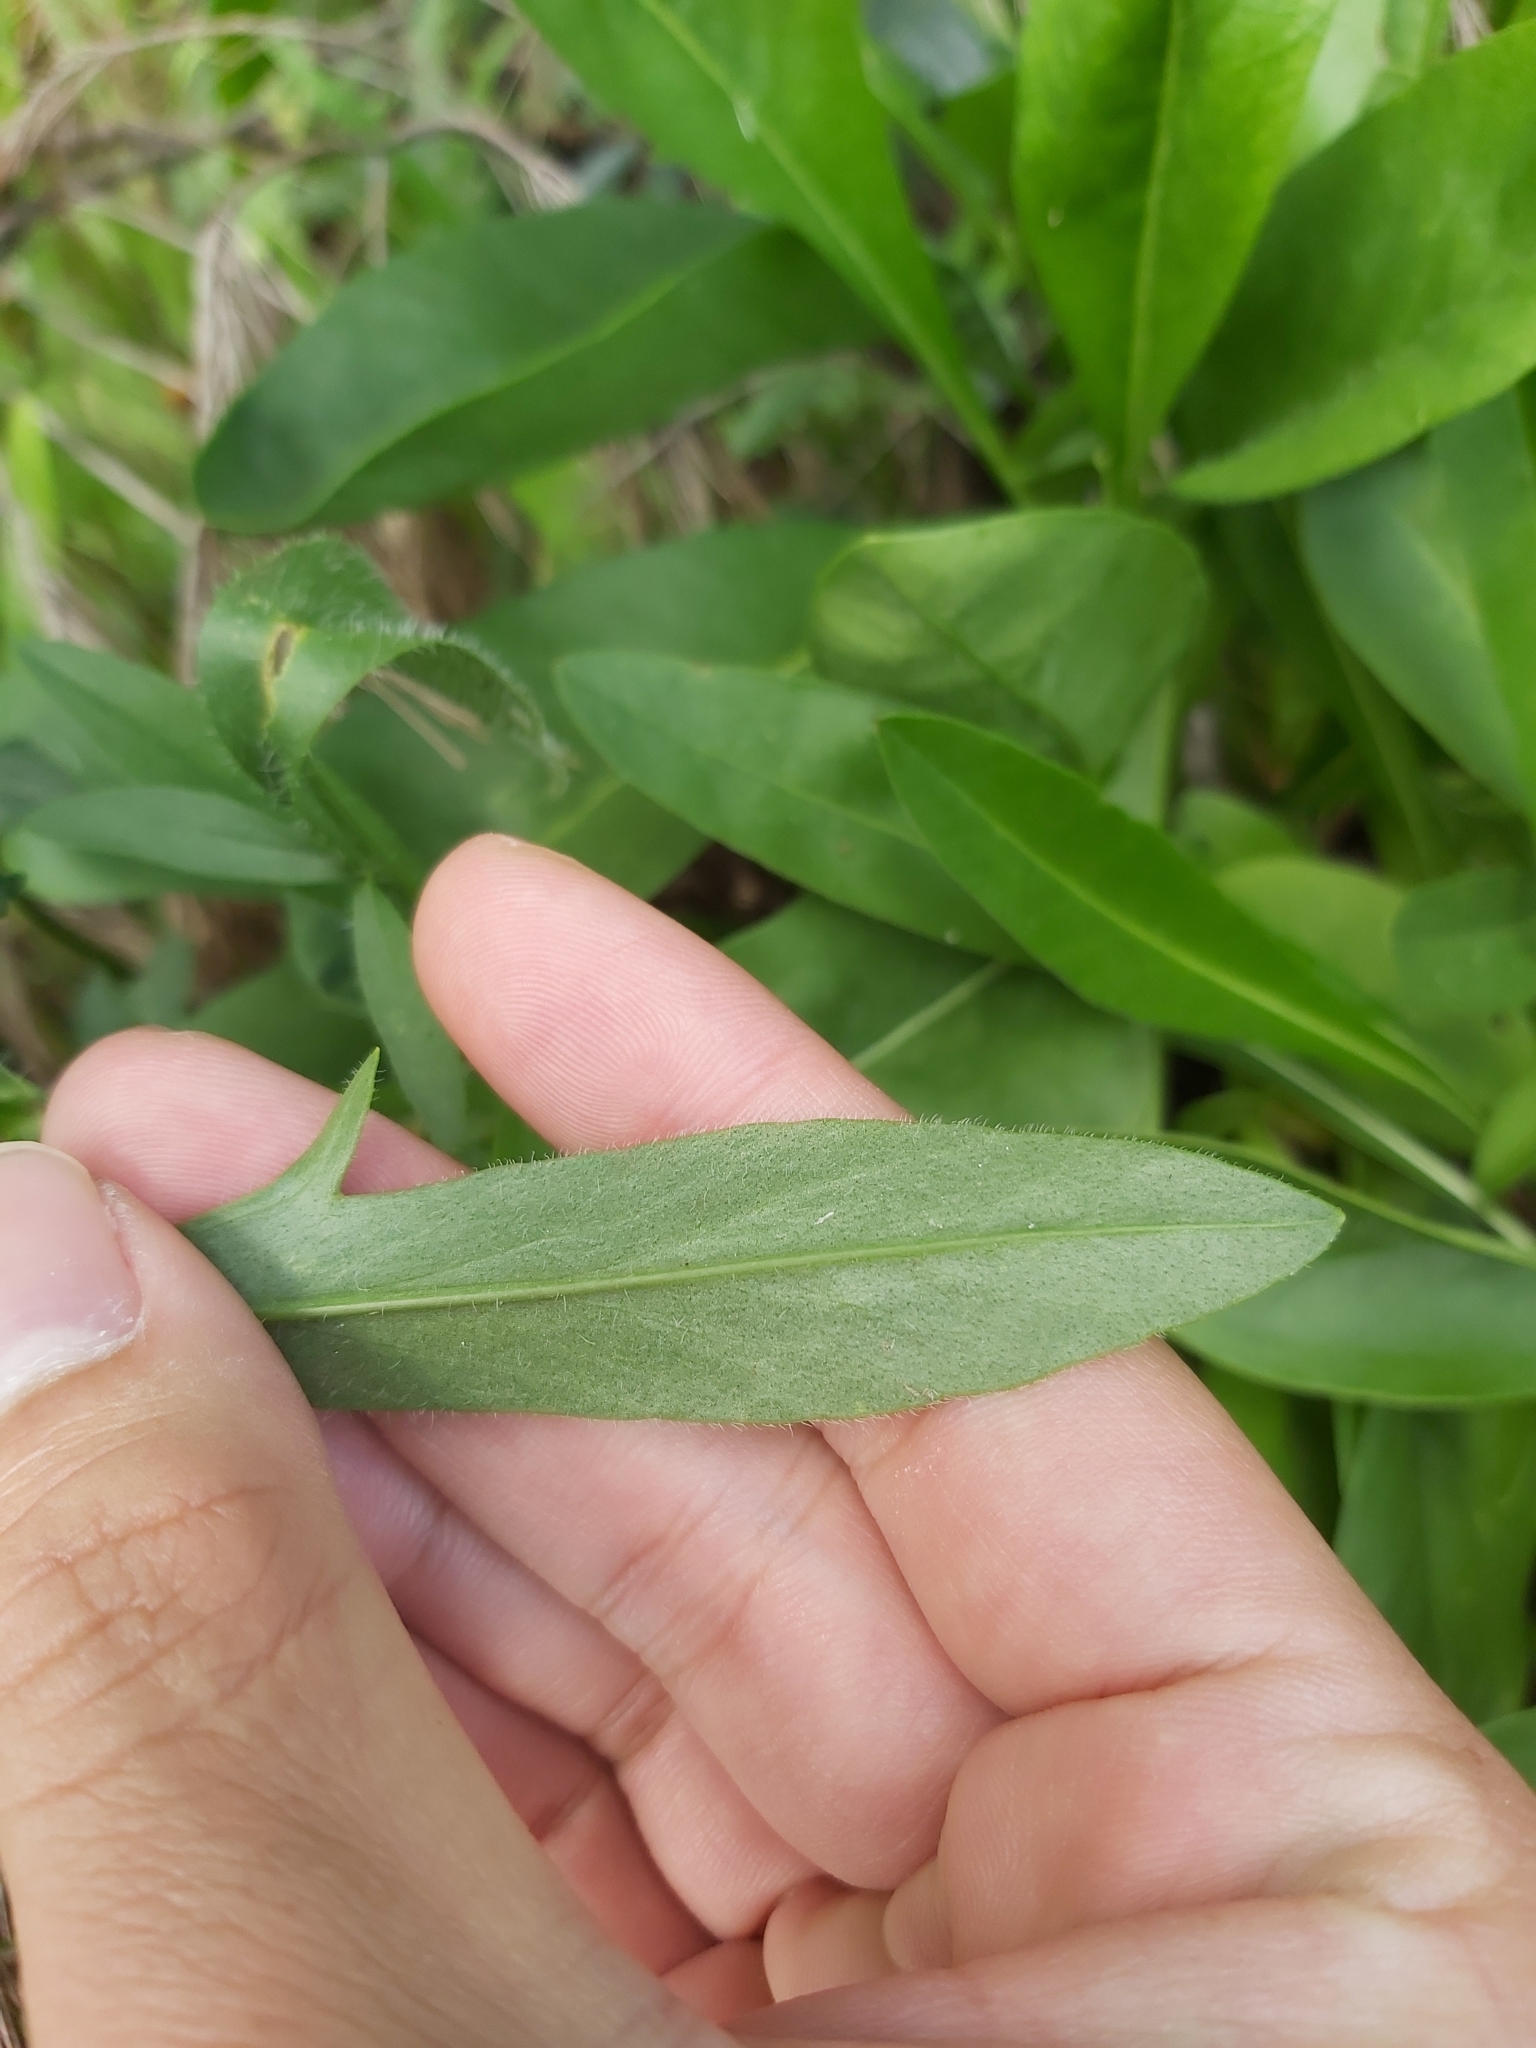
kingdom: Plantae
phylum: Tracheophyta
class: Magnoliopsida
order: Asterales
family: Asteraceae
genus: Coreopsis
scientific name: Coreopsis lanceolata
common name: Garden coreopsis
